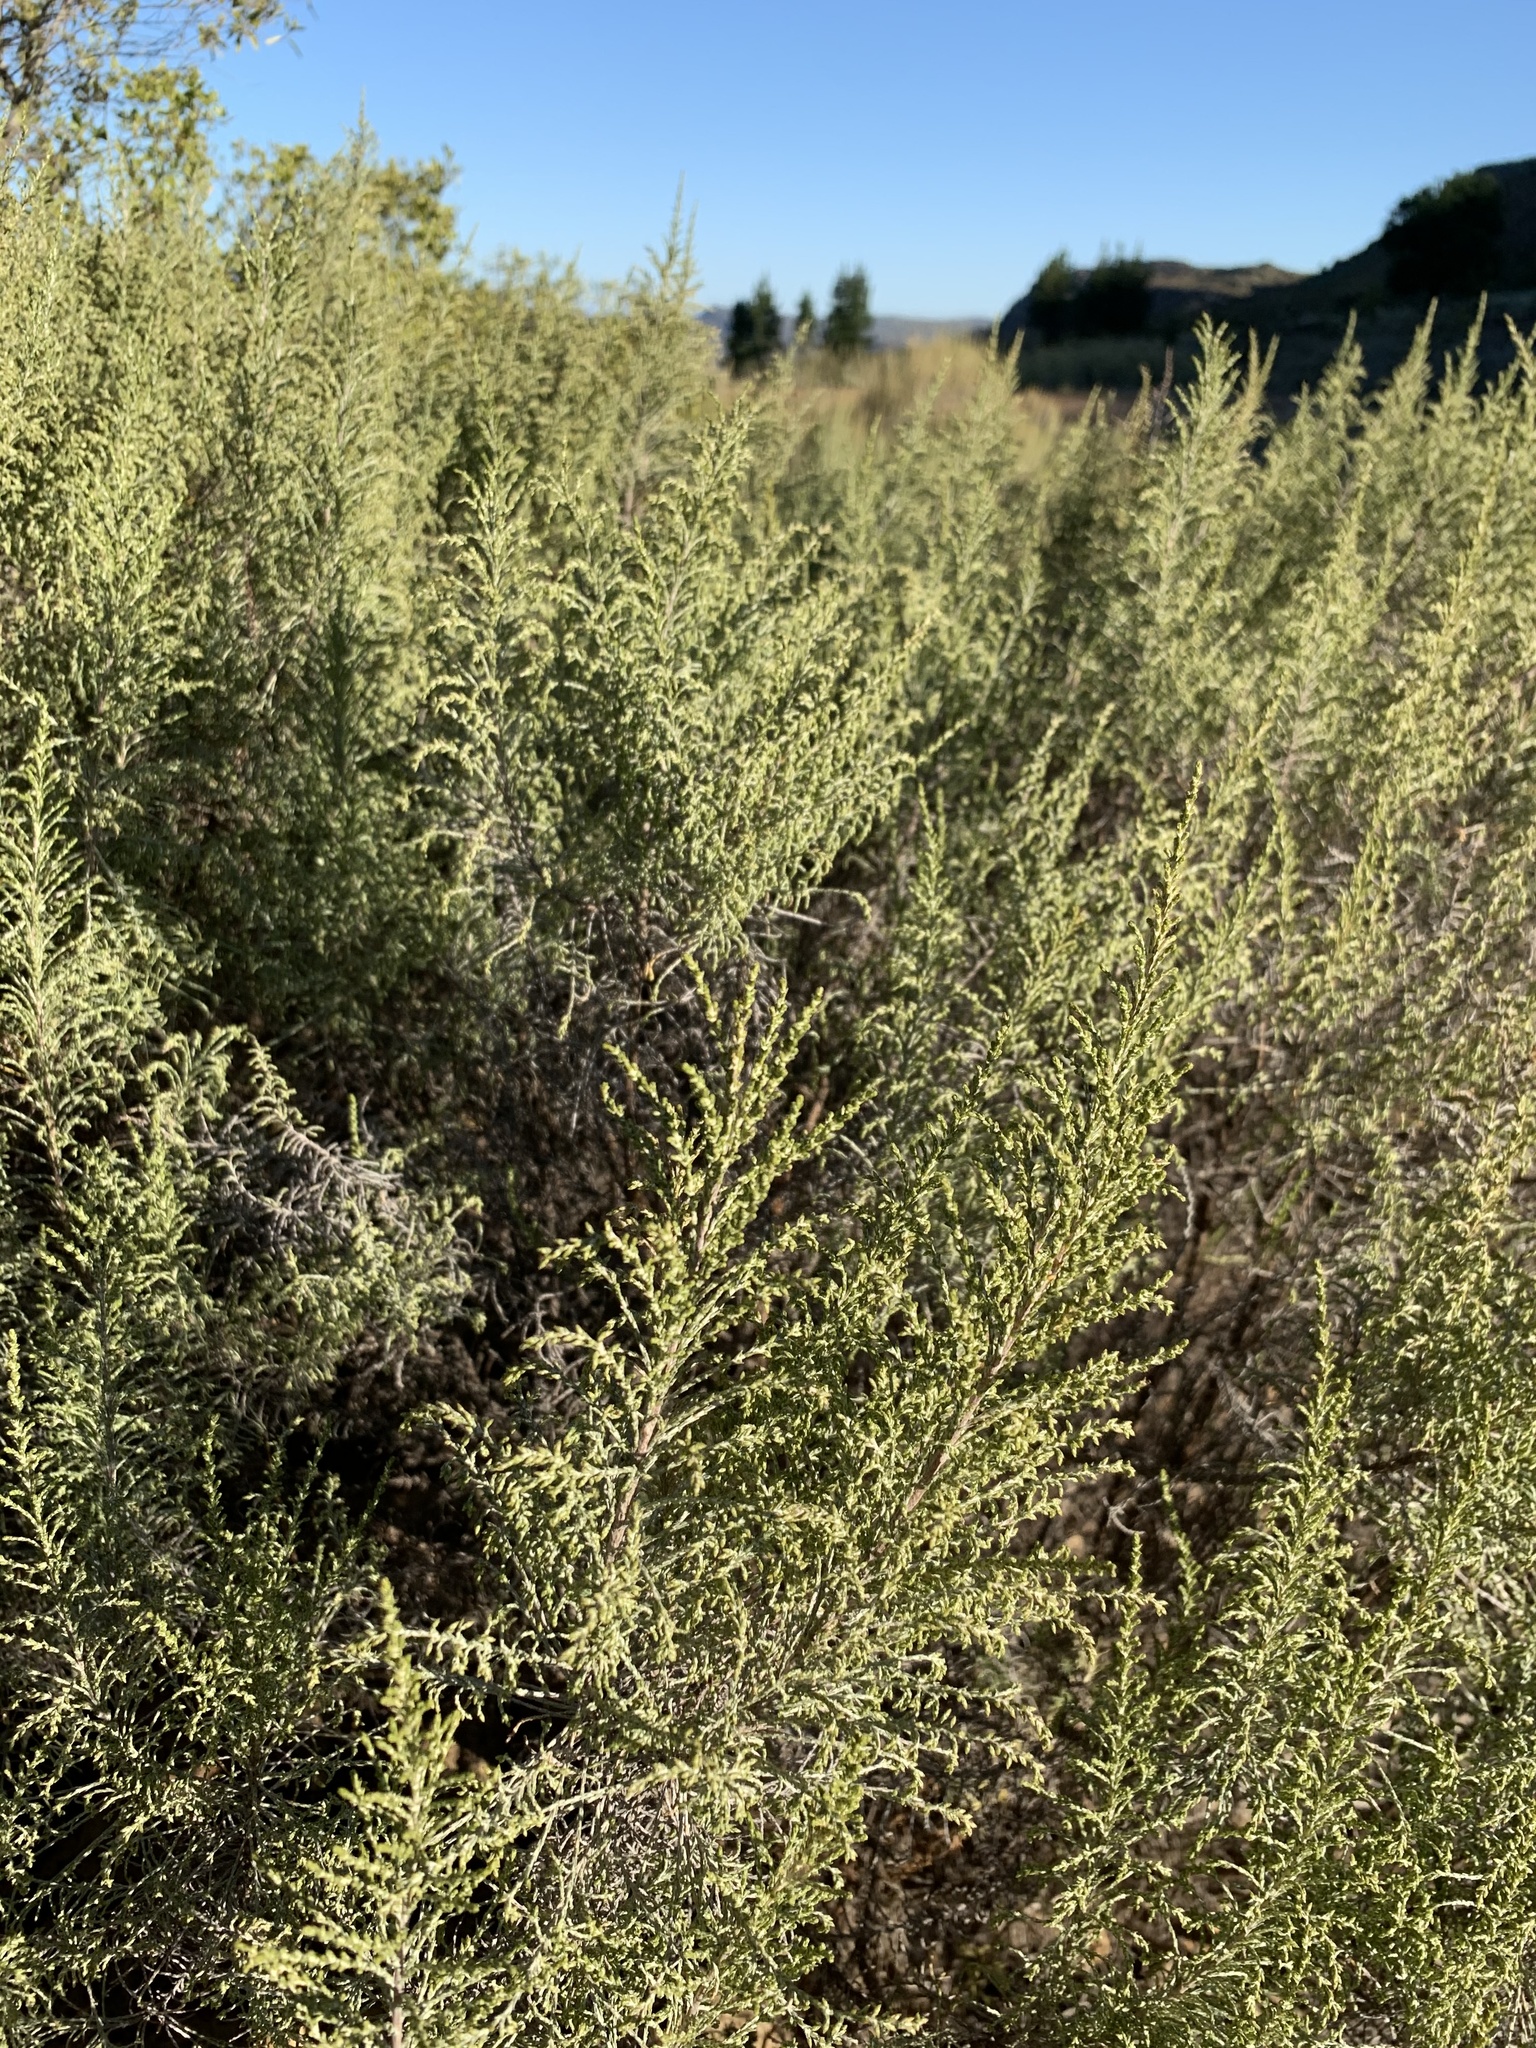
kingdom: Plantae
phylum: Tracheophyta
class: Magnoliopsida
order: Asterales
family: Asteraceae
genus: Dicerothamnus
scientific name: Dicerothamnus rhinocerotis
